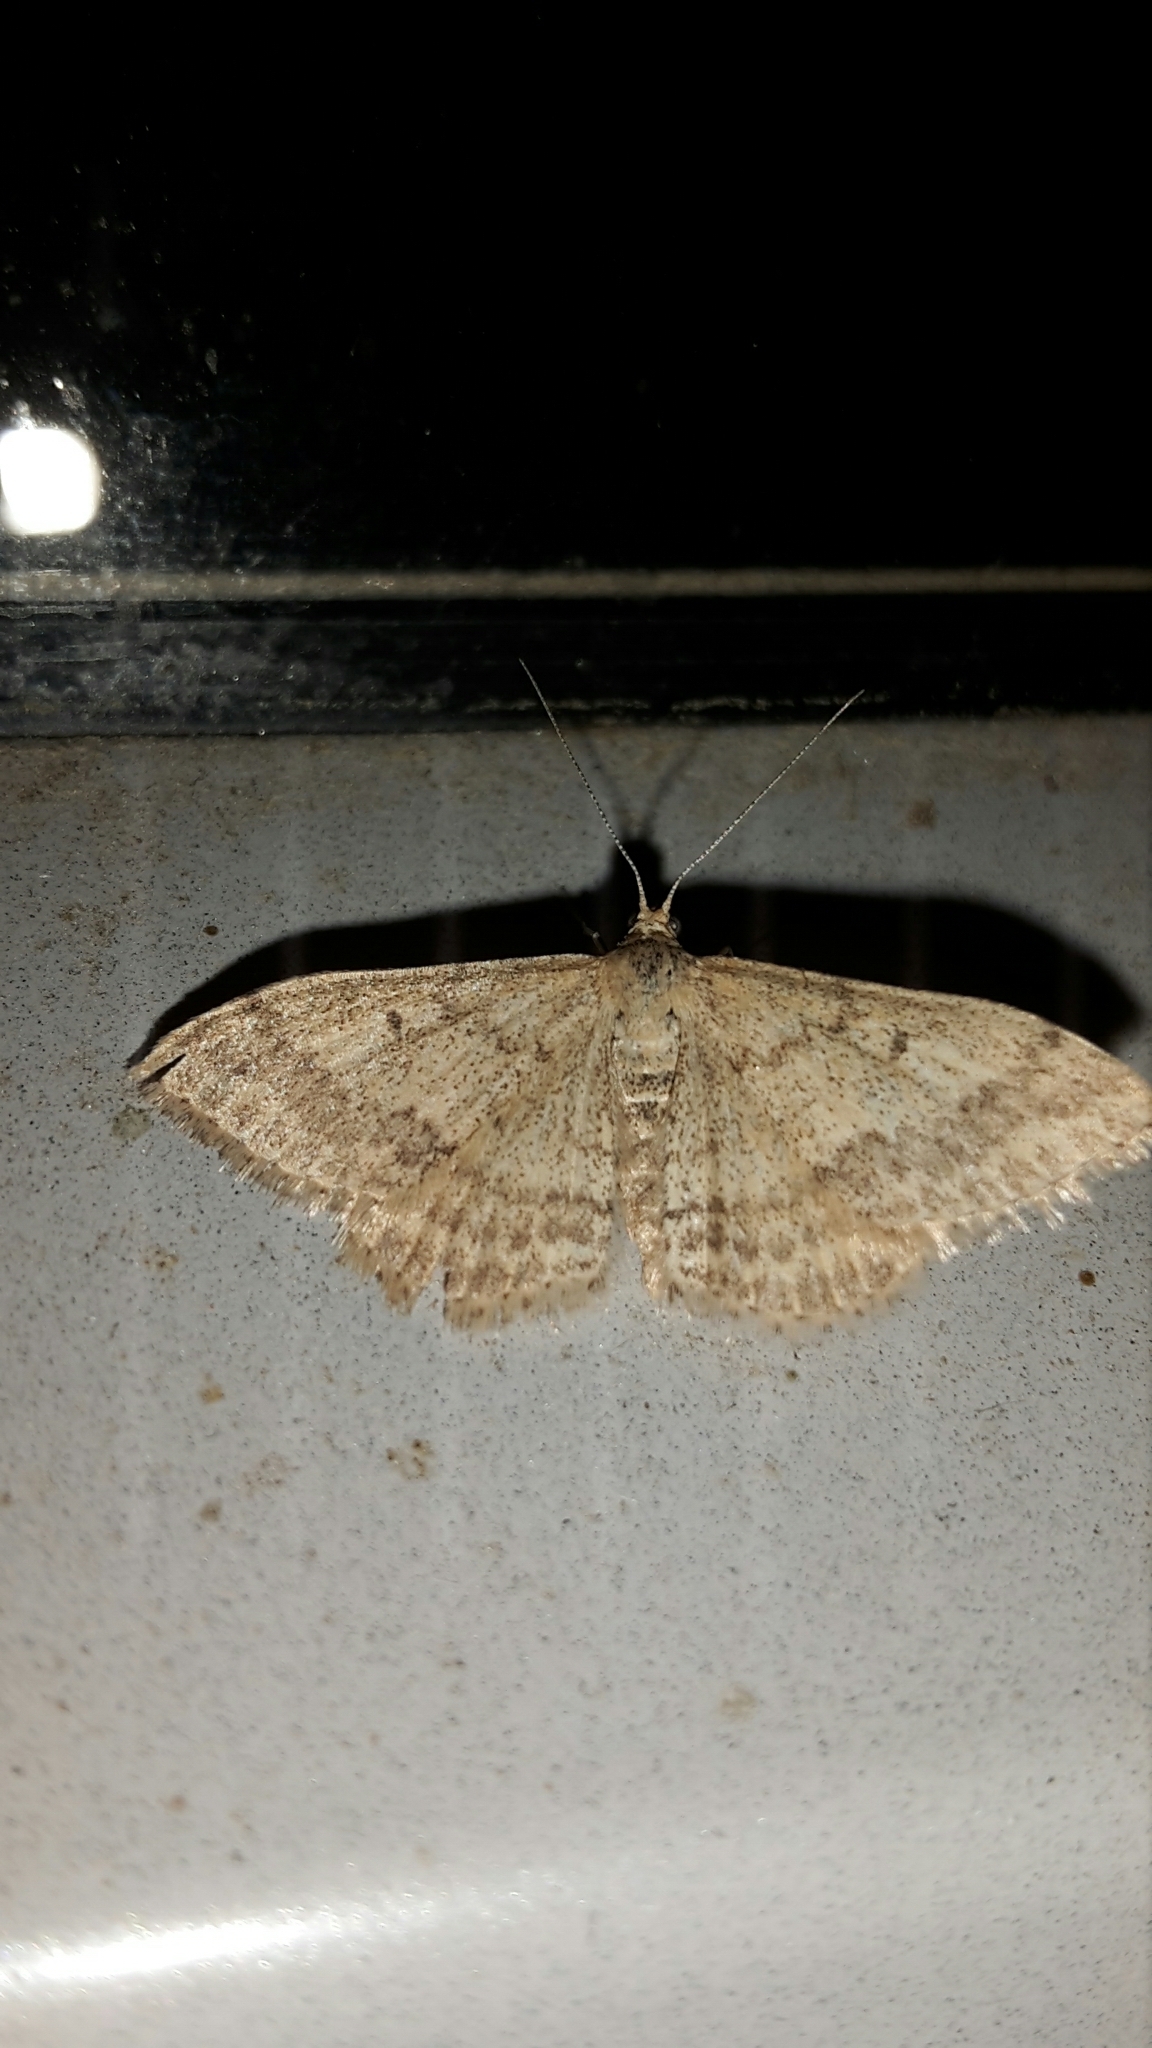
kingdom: Animalia
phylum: Arthropoda
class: Insecta
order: Lepidoptera
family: Geometridae
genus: Scopula
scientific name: Scopula rubraria
